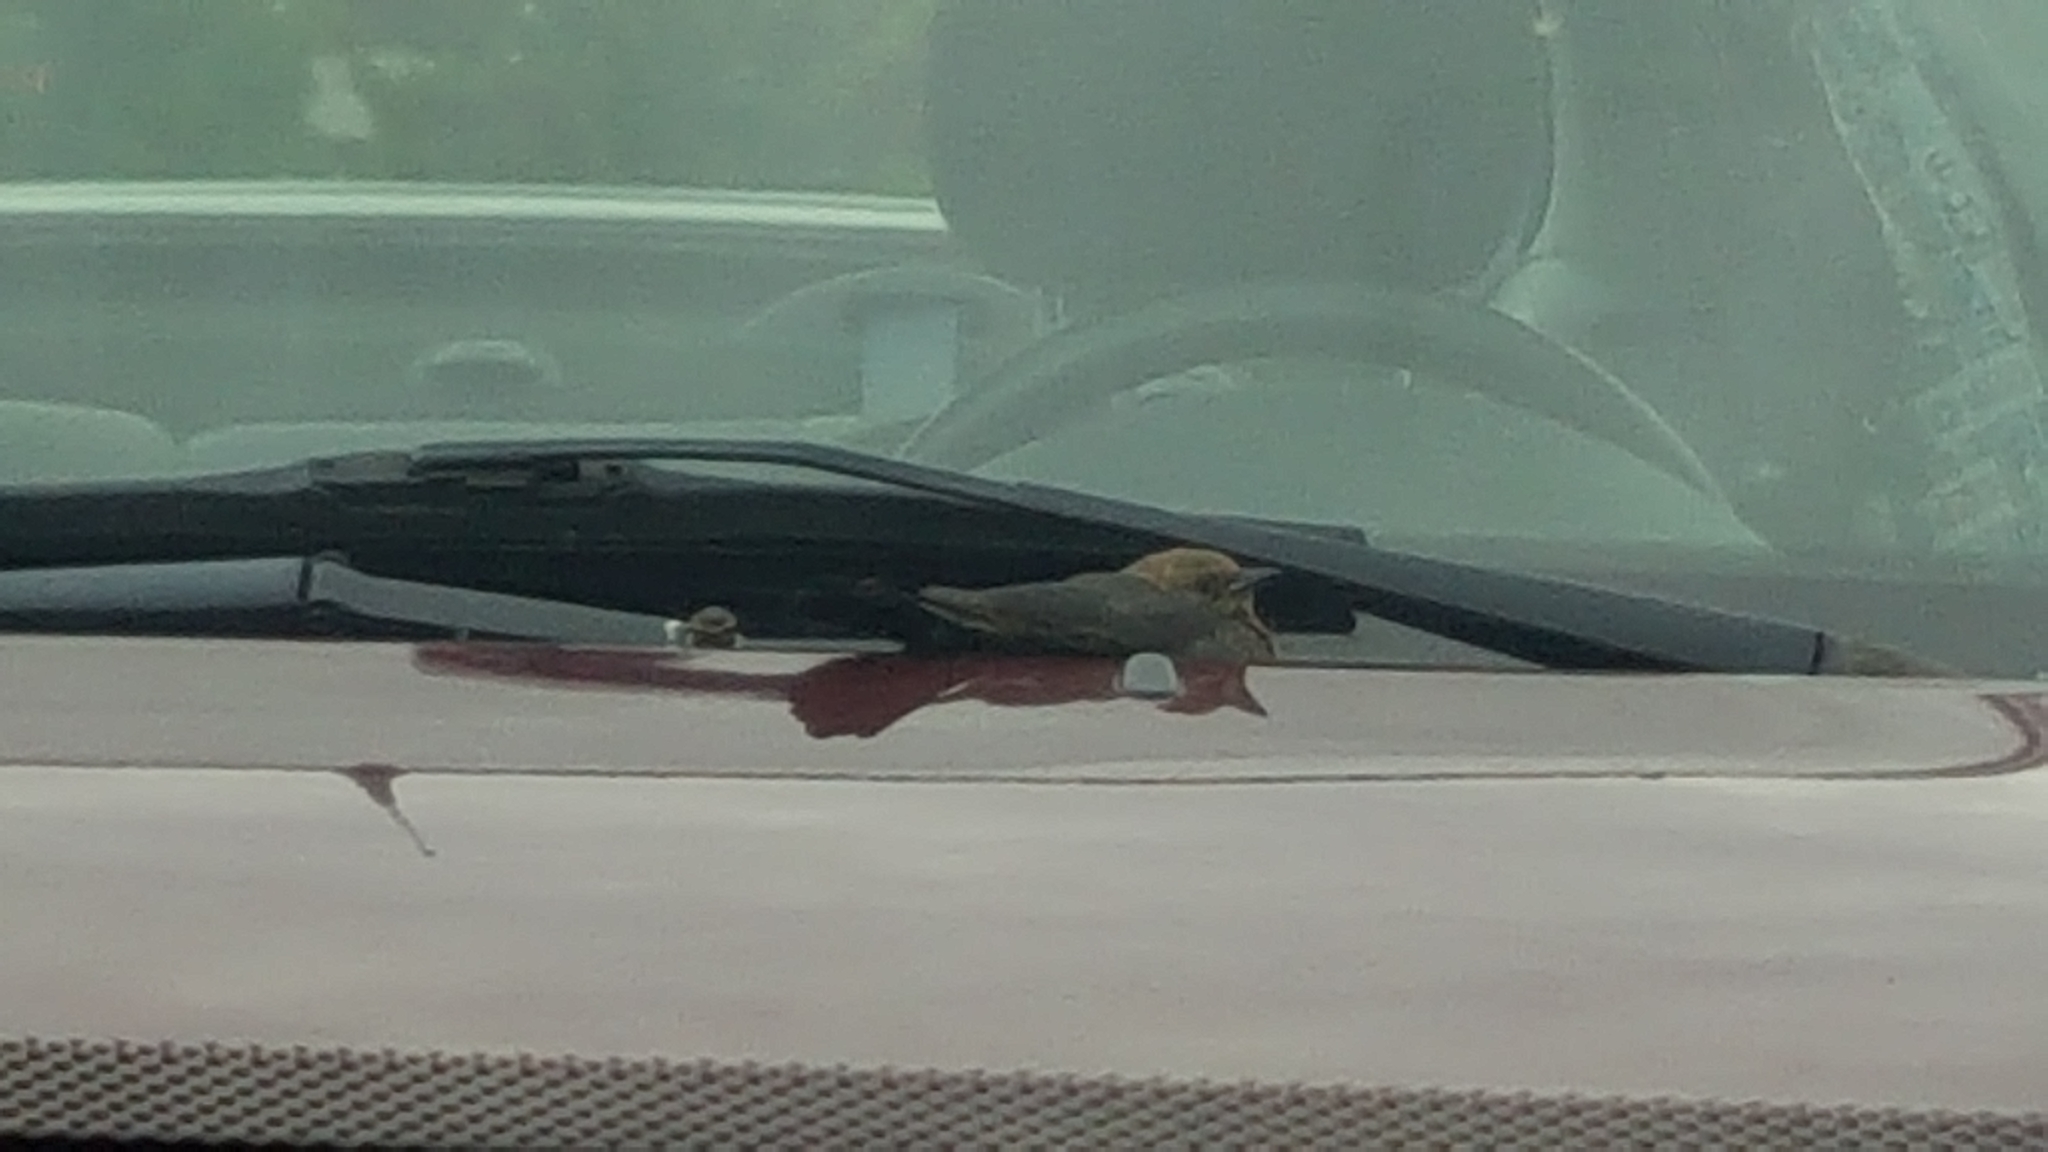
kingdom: Animalia
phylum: Chordata
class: Aves
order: Passeriformes
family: Icteridae
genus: Euphagus
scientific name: Euphagus cyanocephalus
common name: Brewer's blackbird
